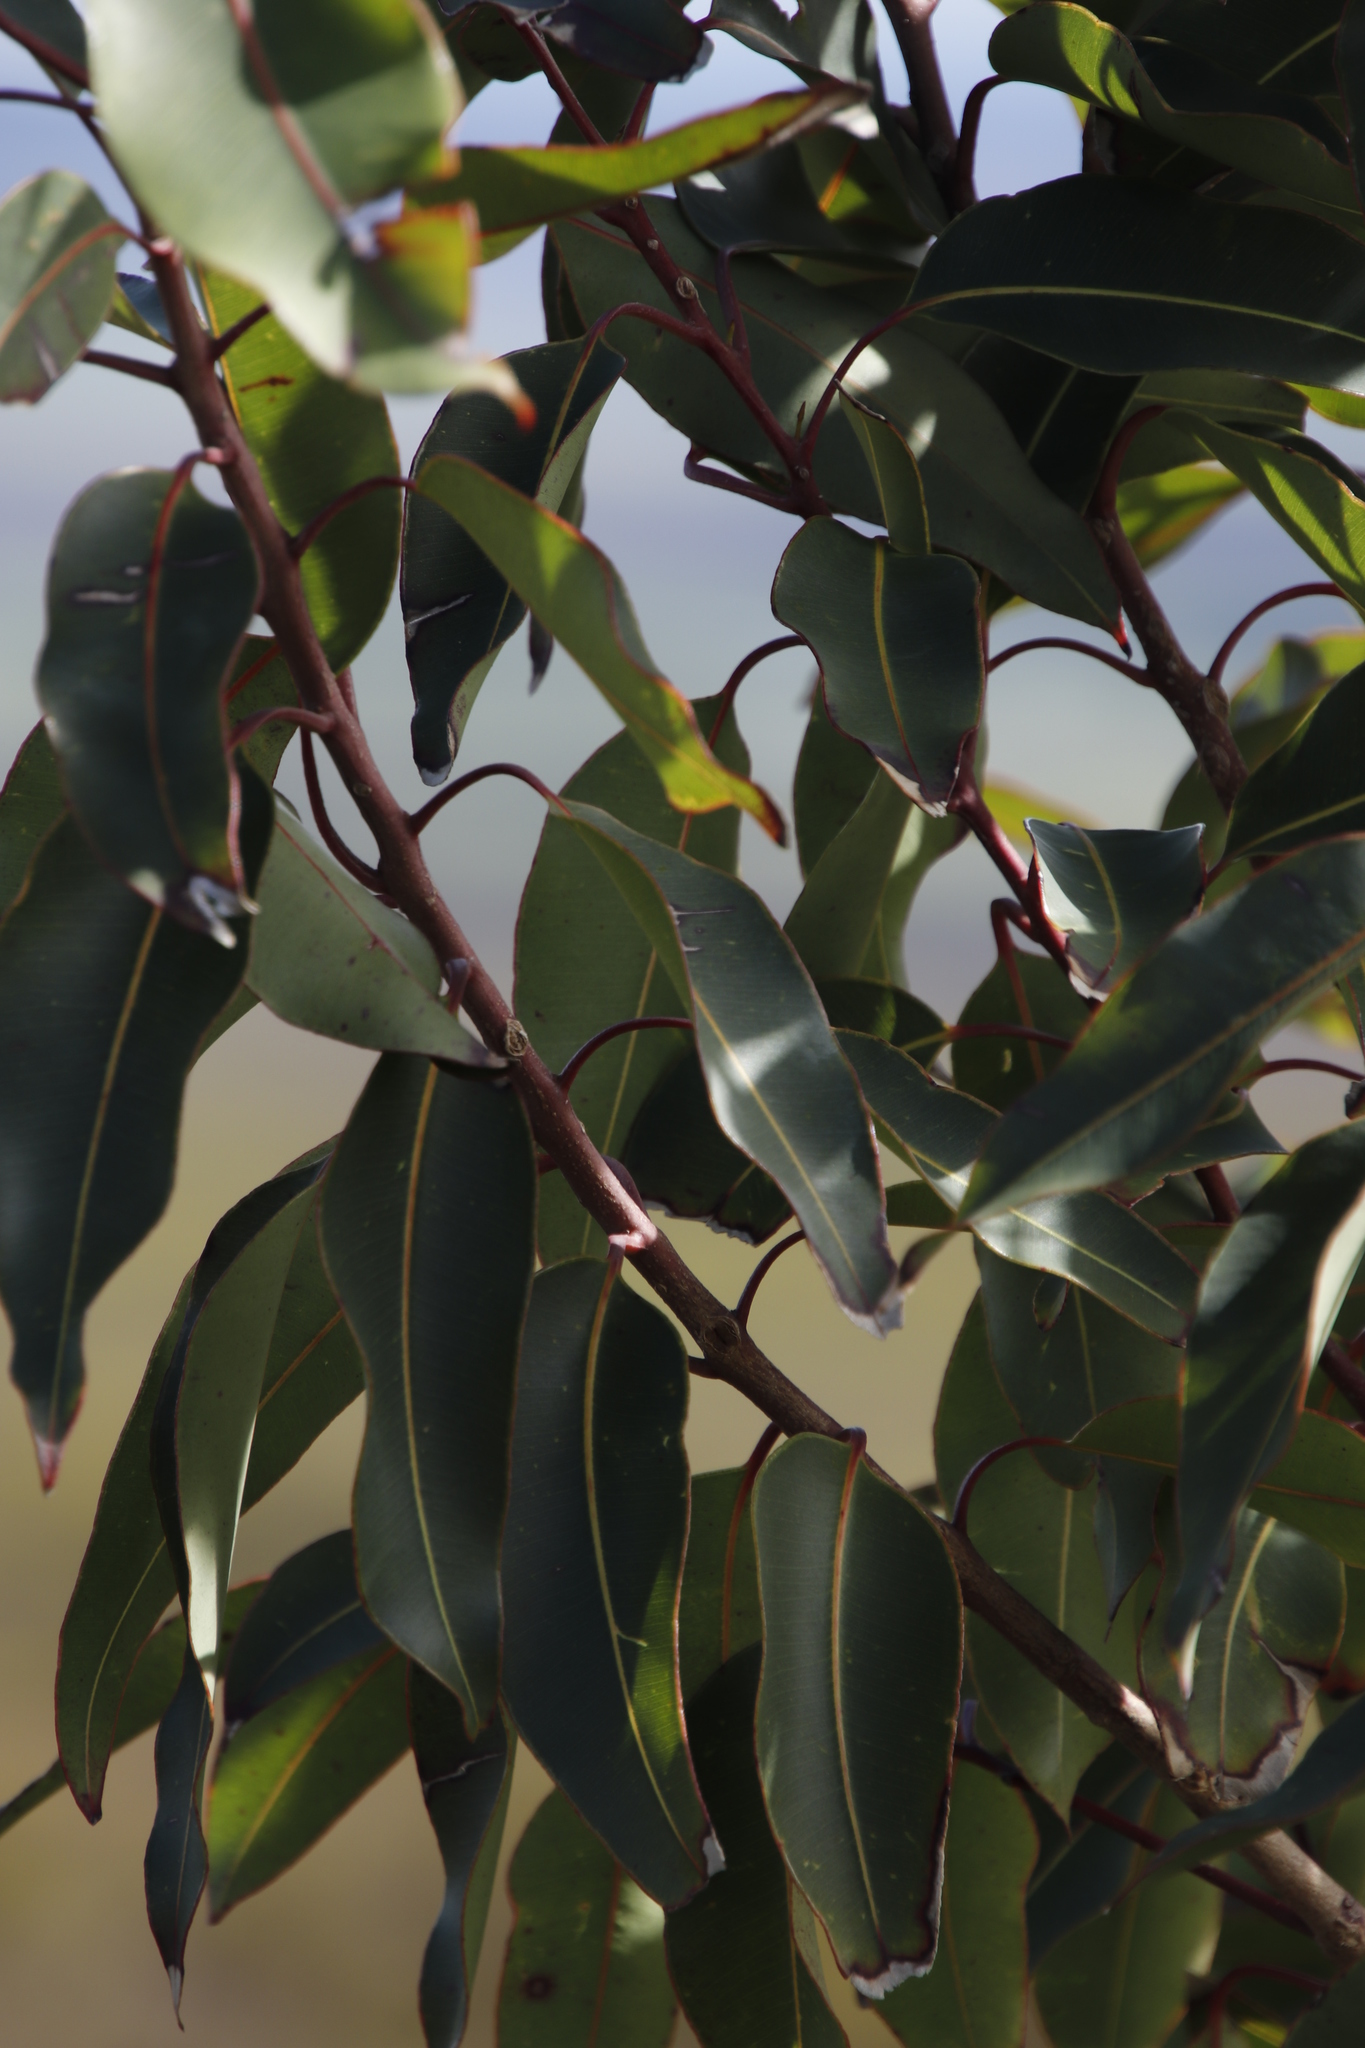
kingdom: Plantae
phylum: Tracheophyta
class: Magnoliopsida
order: Myrtales
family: Myrtaceae
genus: Corymbia
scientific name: Corymbia ficifolia
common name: Redflower gum
